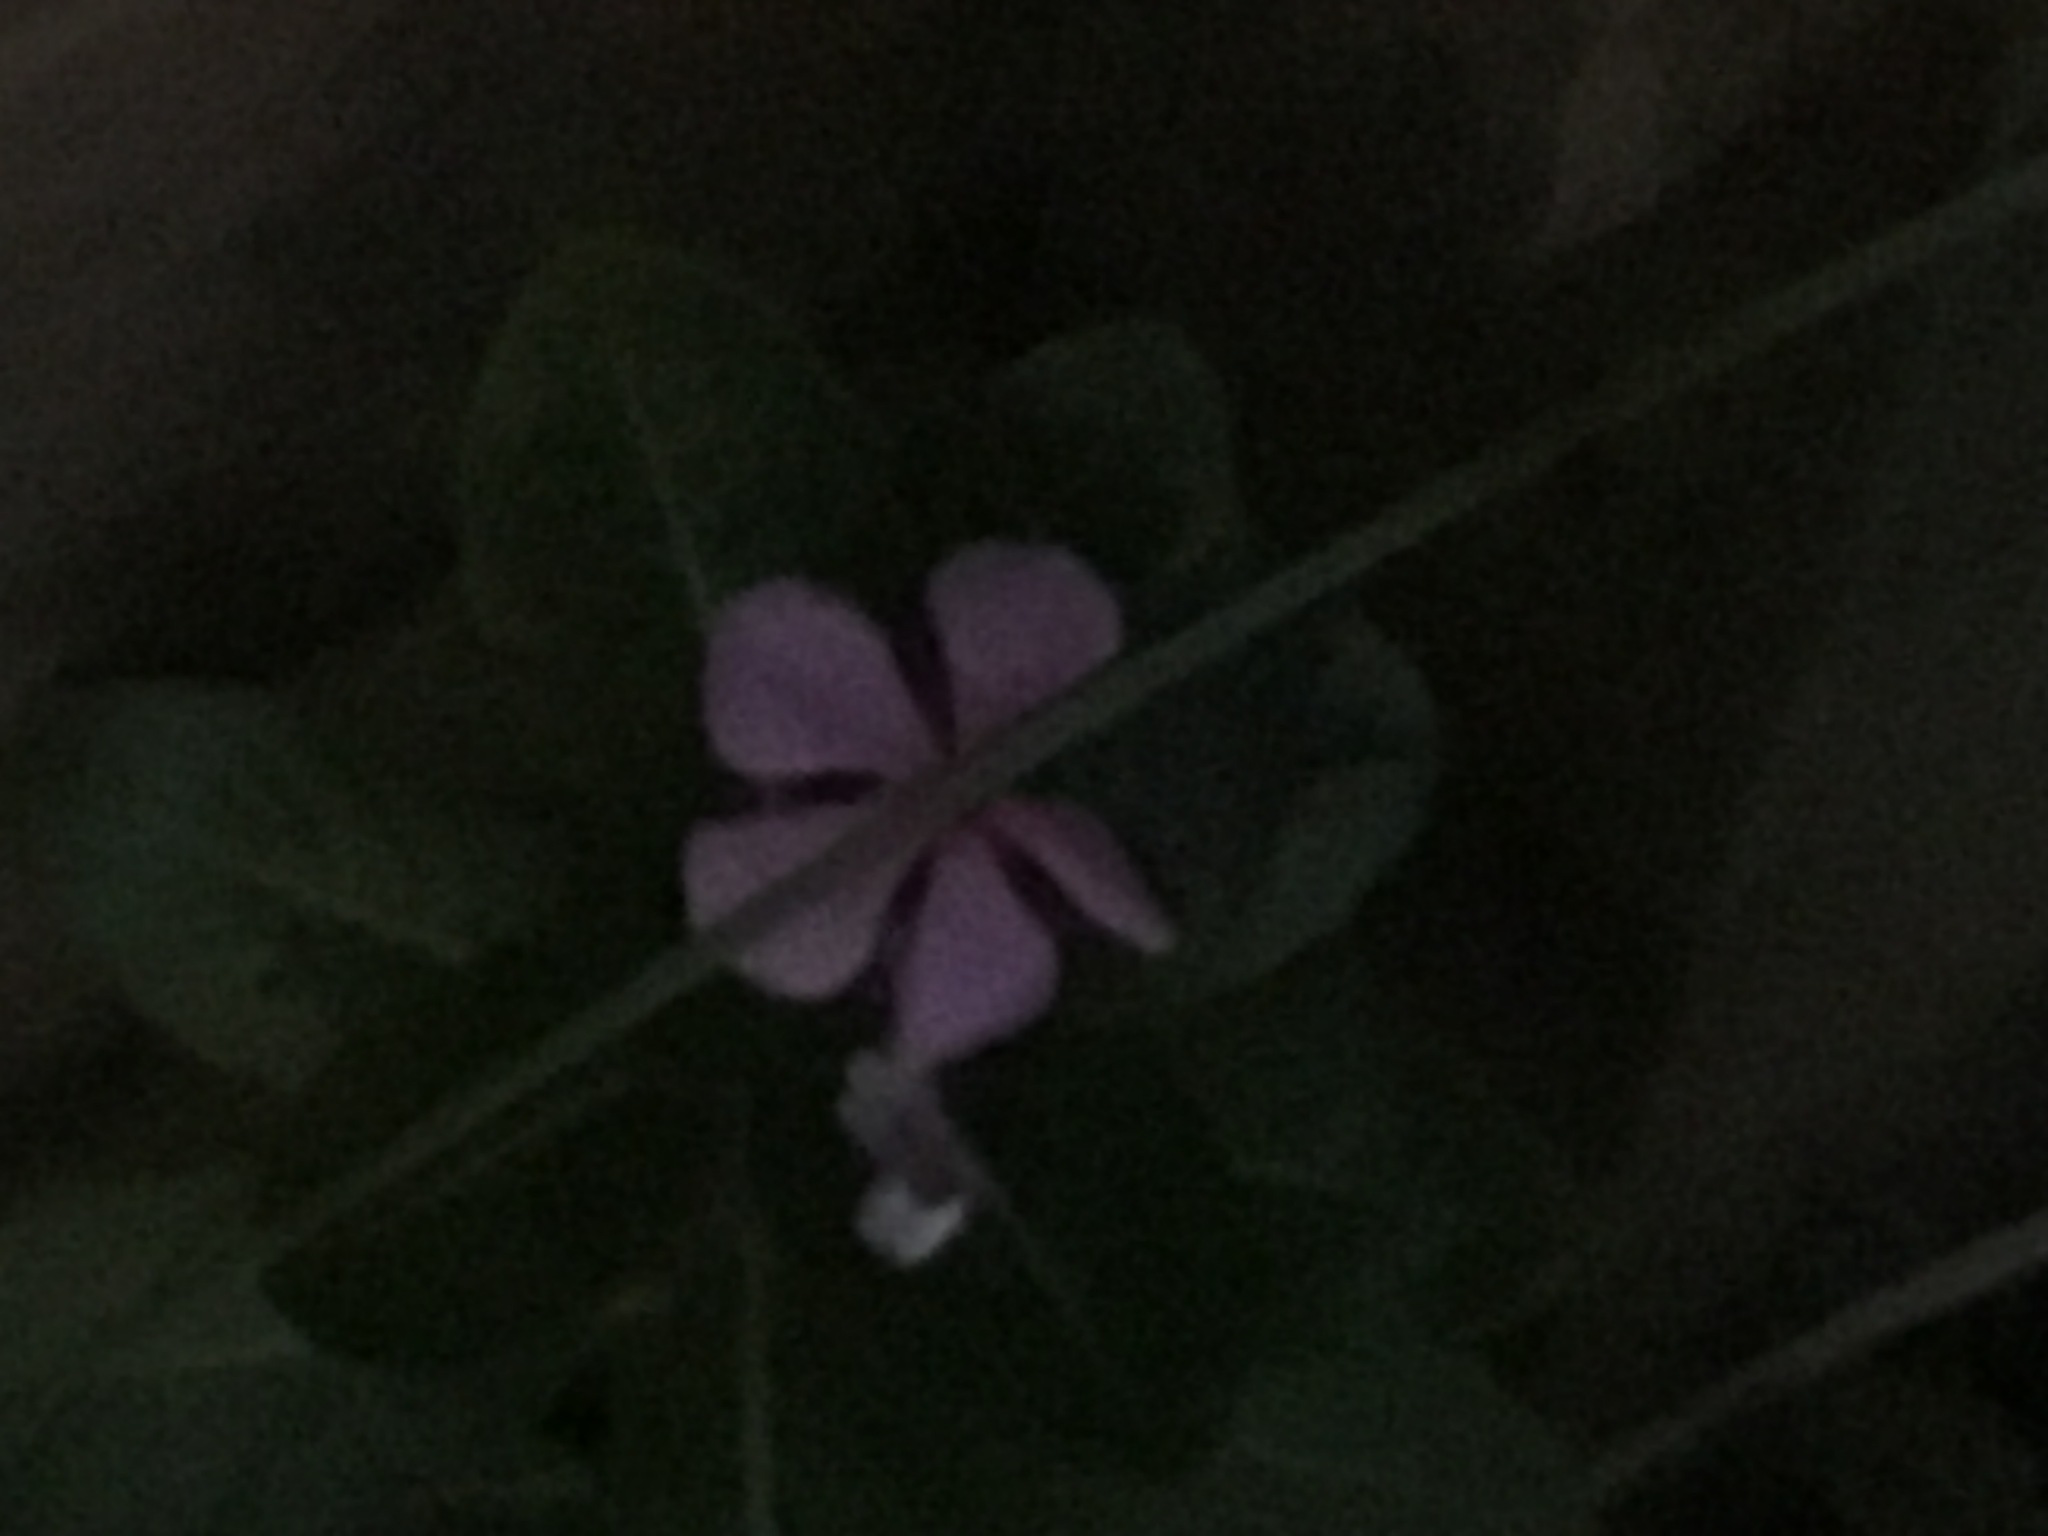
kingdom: Plantae
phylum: Tracheophyta
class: Magnoliopsida
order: Gentianales
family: Apocynaceae
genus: Catharanthus
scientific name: Catharanthus roseus
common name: Madagascar periwinkle
